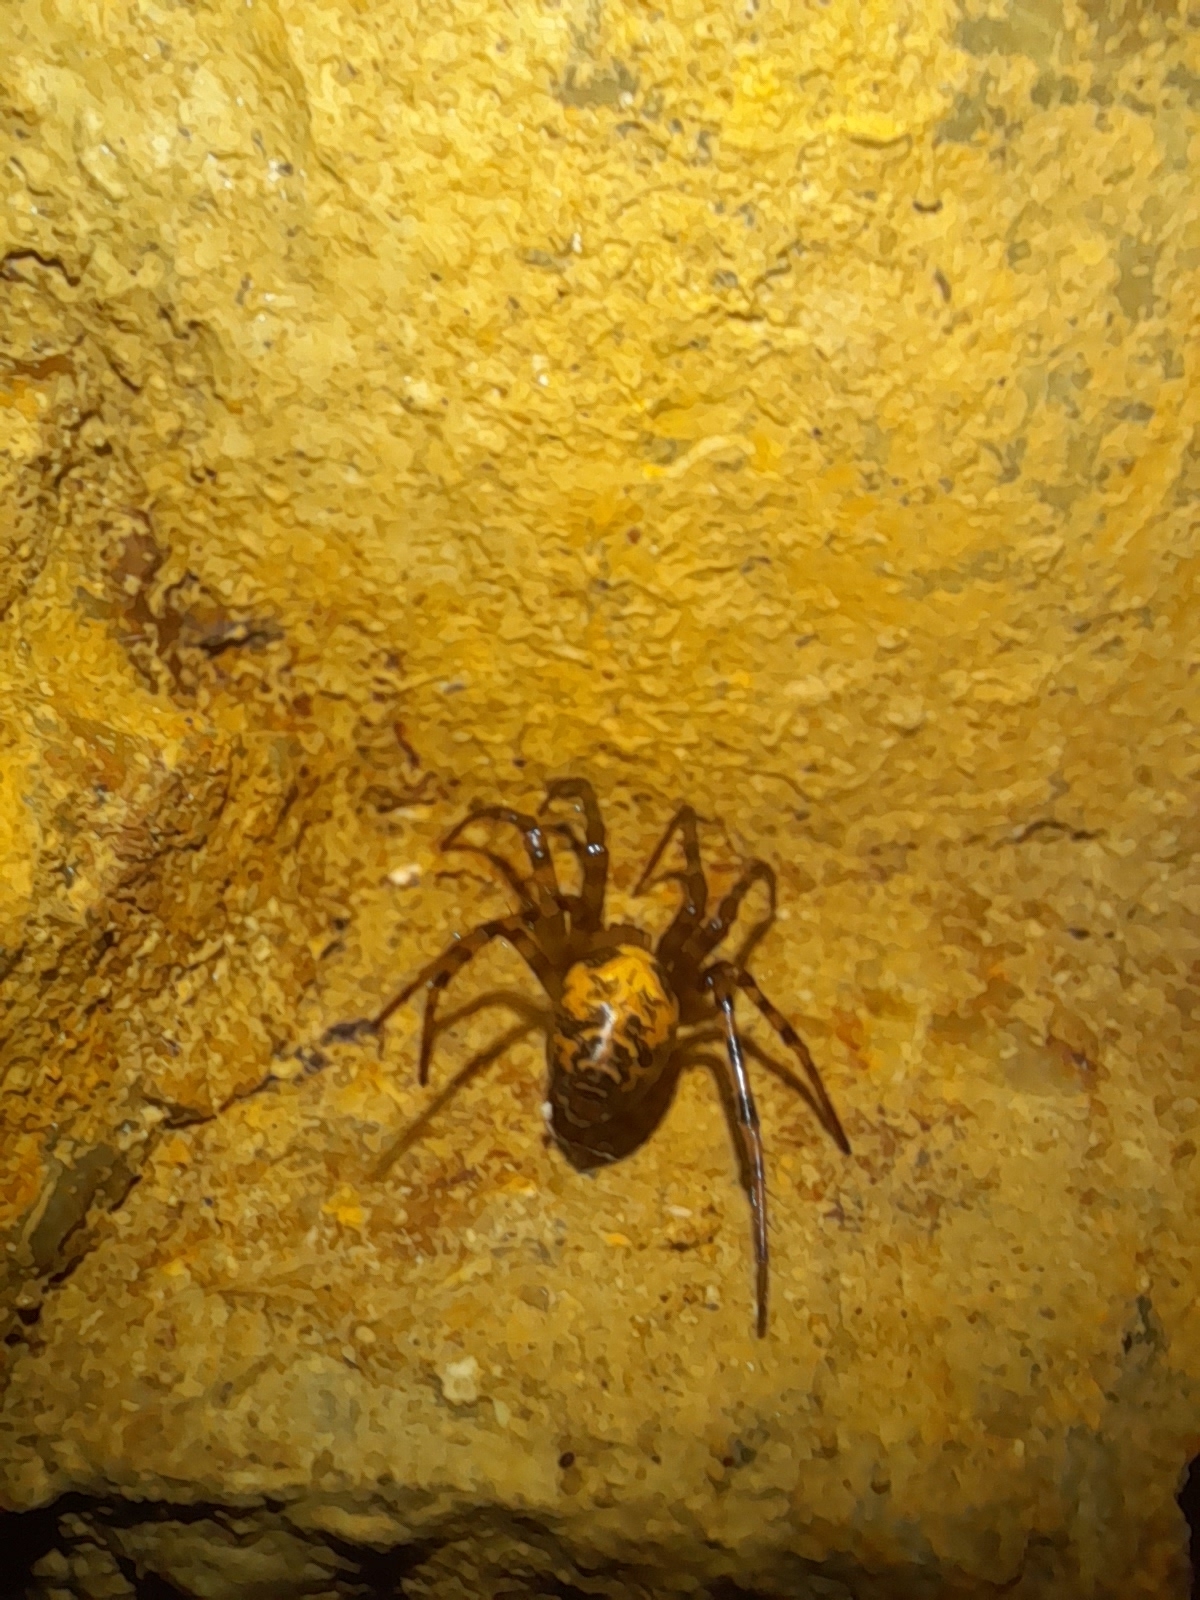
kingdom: Animalia
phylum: Arthropoda
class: Arachnida
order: Araneae
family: Tetragnathidae
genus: Meta
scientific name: Meta menardi
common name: Cave spider
